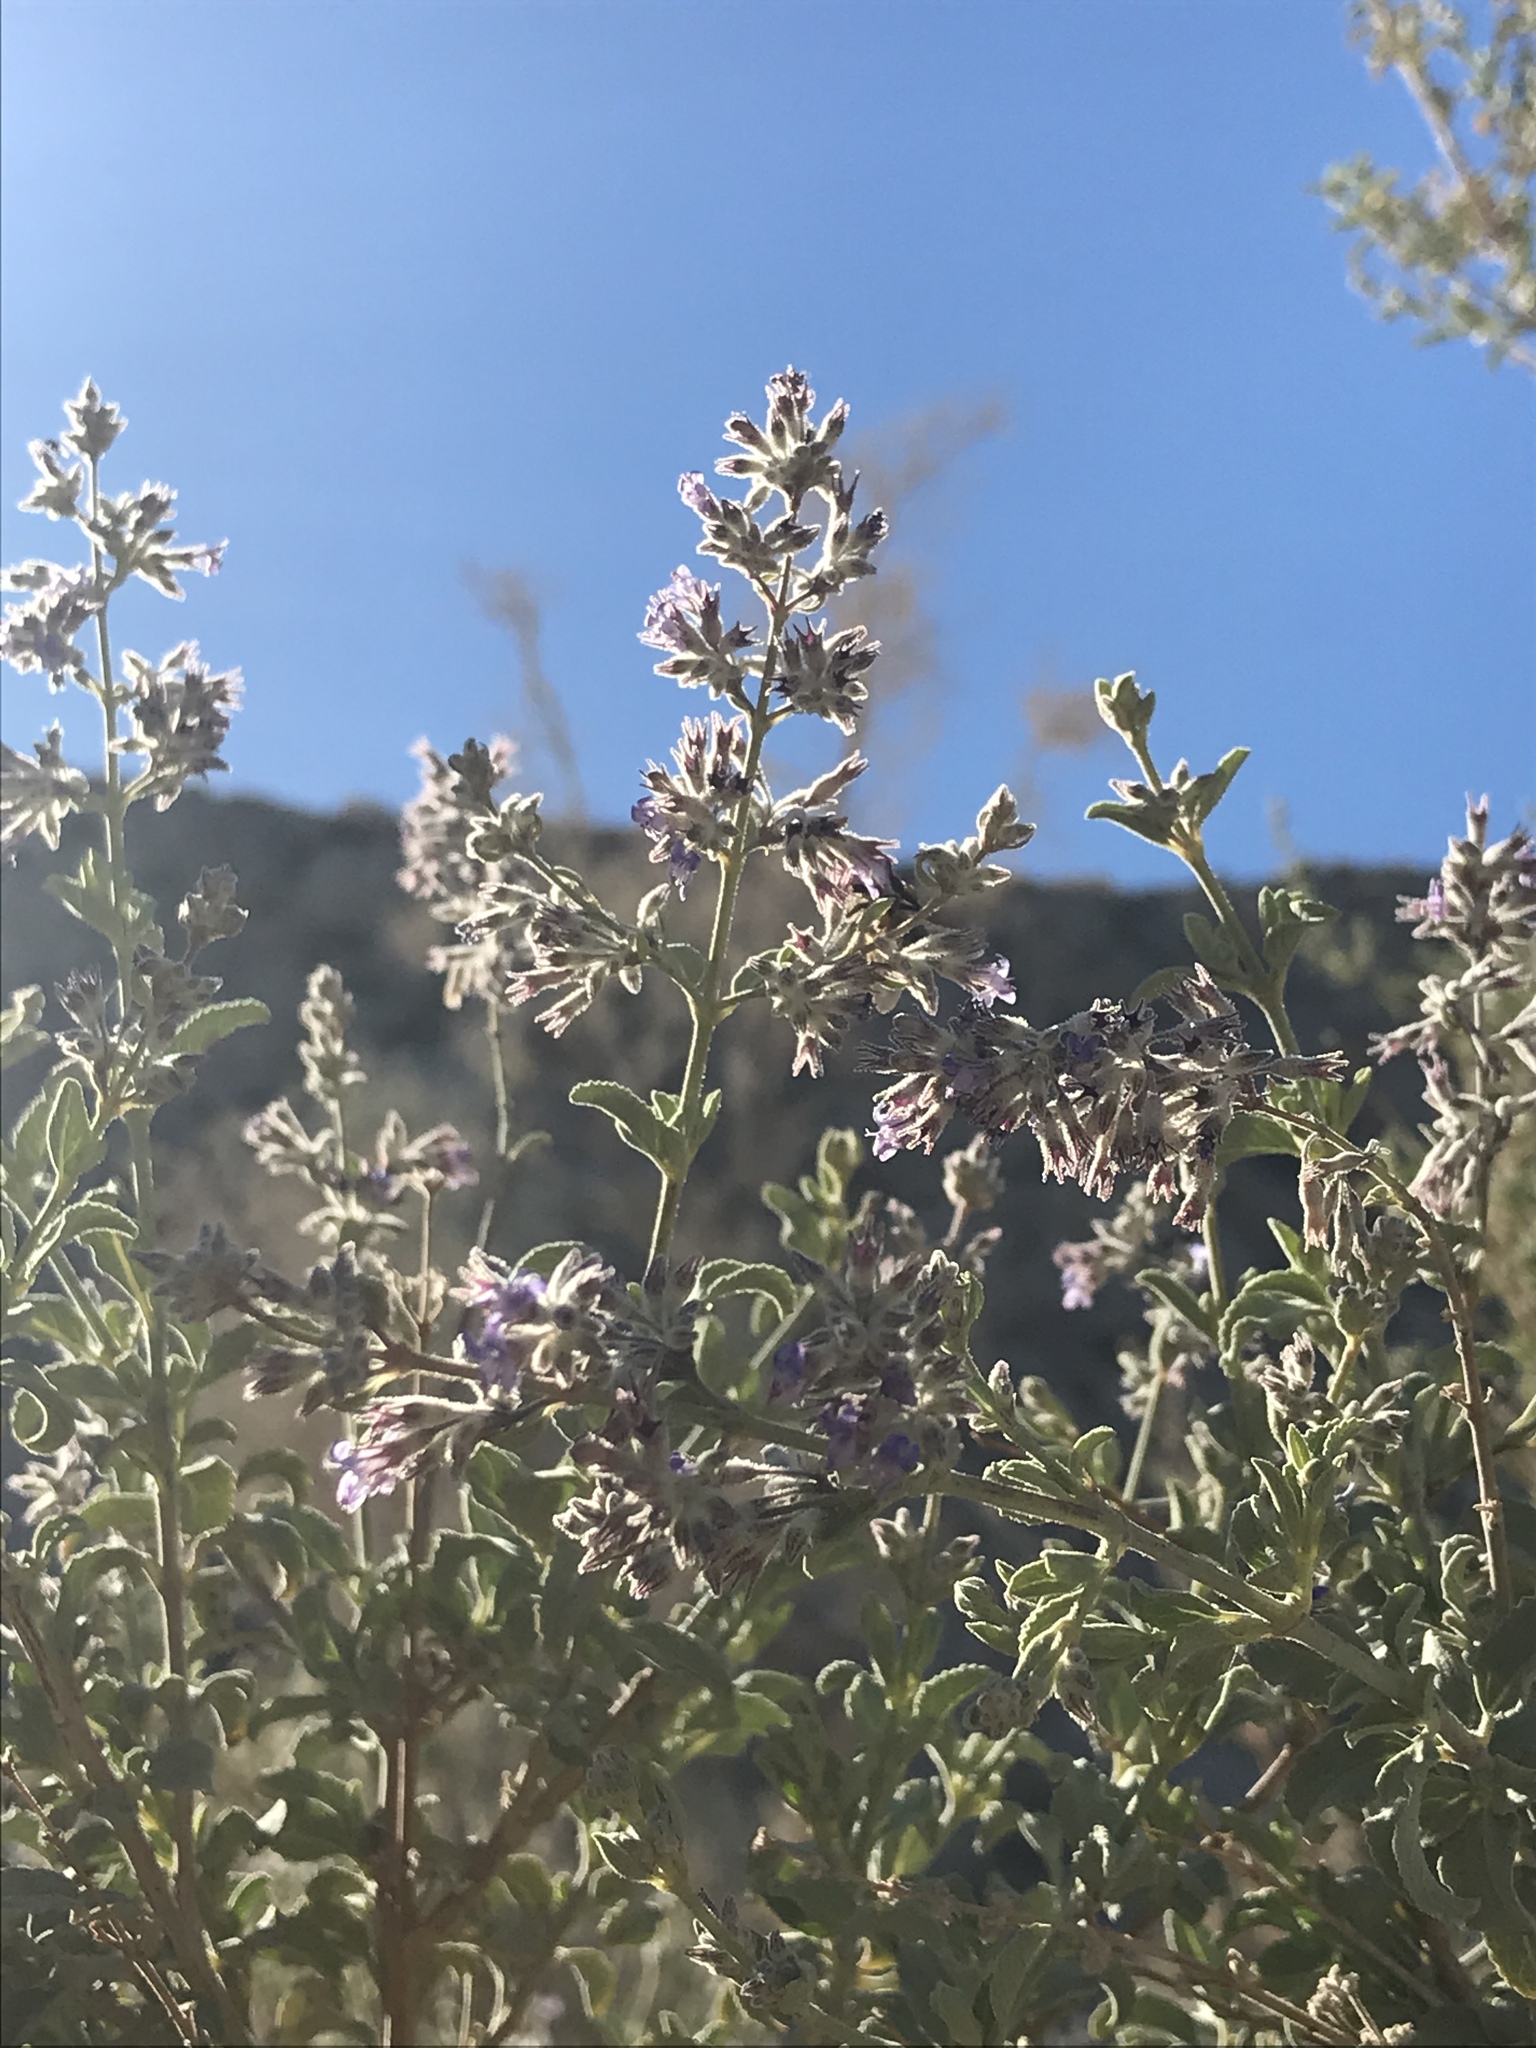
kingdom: Plantae
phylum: Tracheophyta
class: Magnoliopsida
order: Lamiales
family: Lamiaceae
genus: Condea
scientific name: Condea emoryi
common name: Chia
